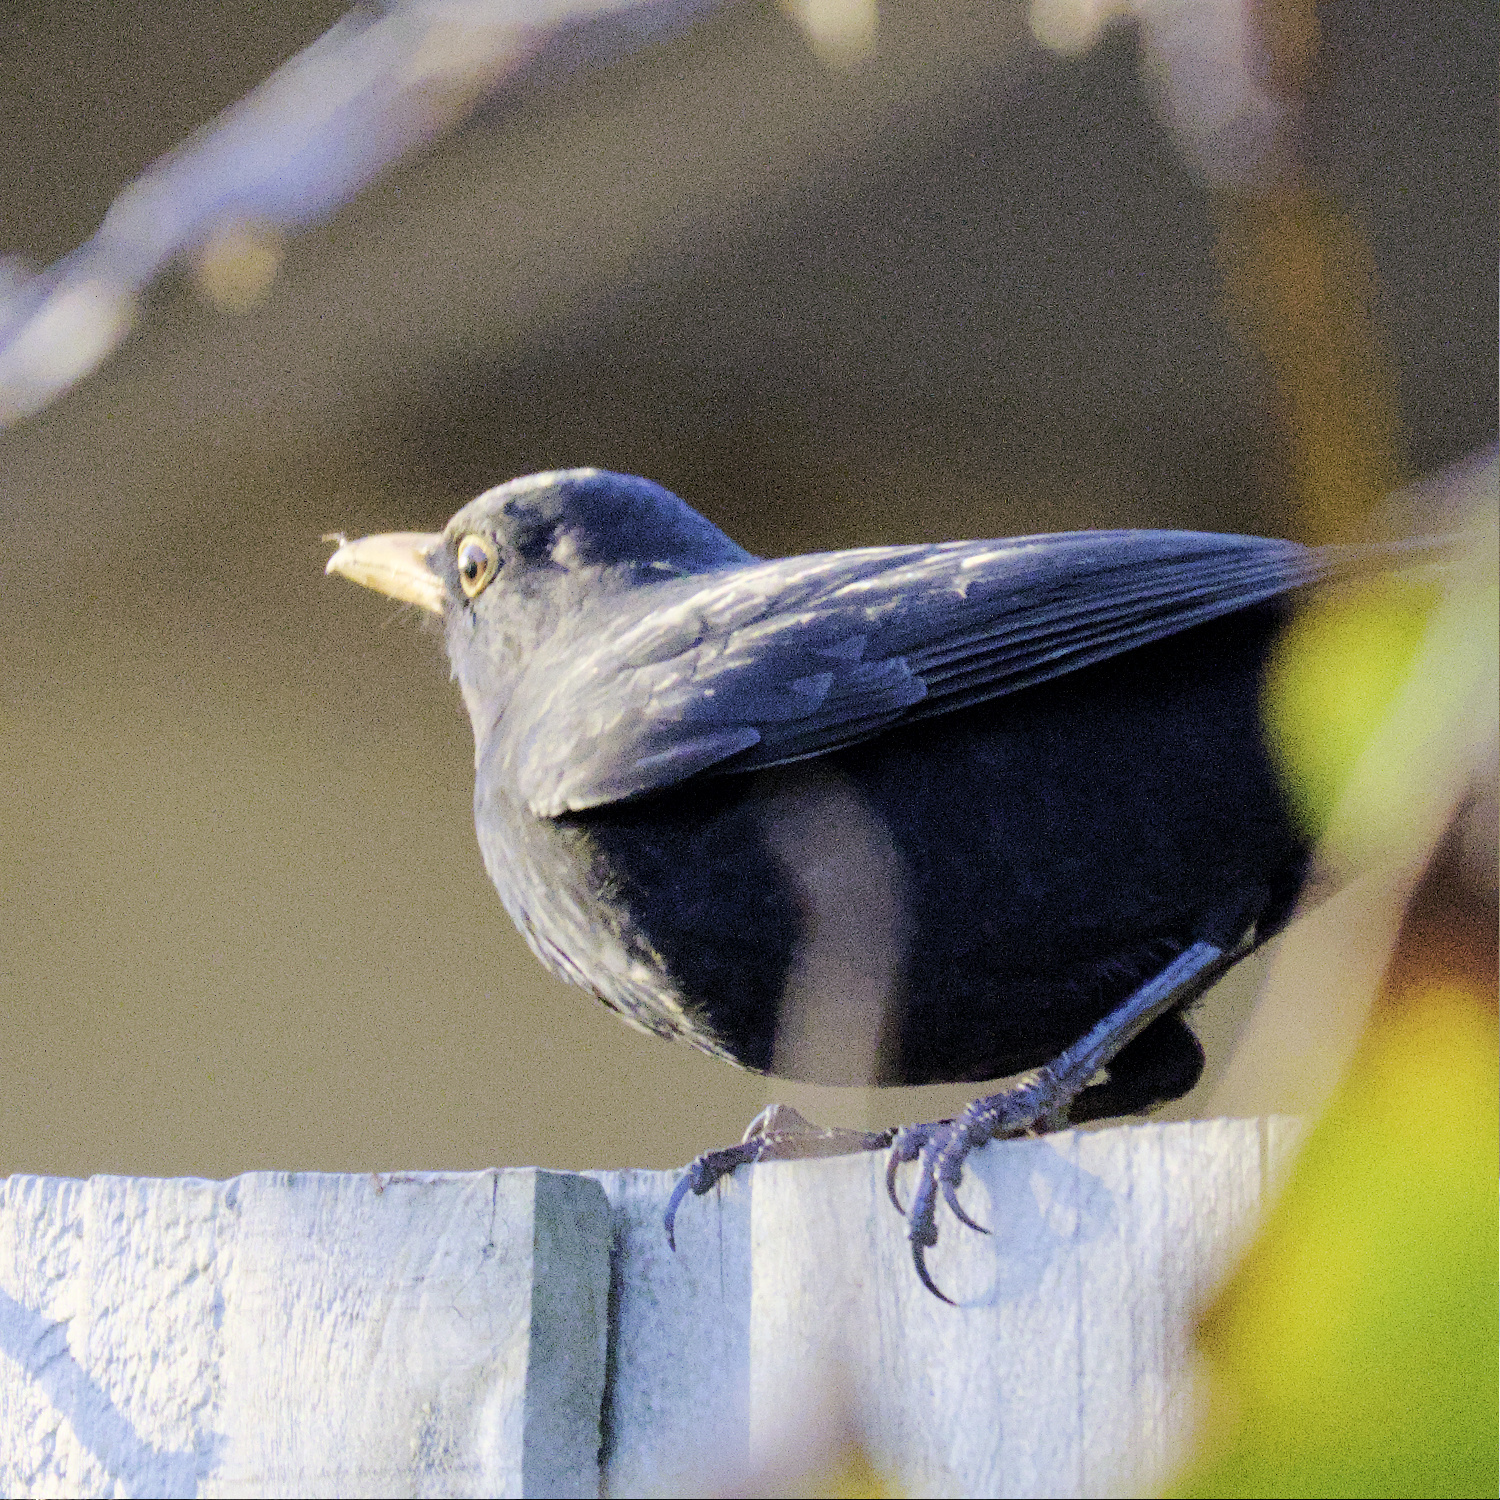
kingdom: Animalia
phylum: Chordata
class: Aves
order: Passeriformes
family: Turdidae
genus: Turdus
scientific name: Turdus merula
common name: Common blackbird
